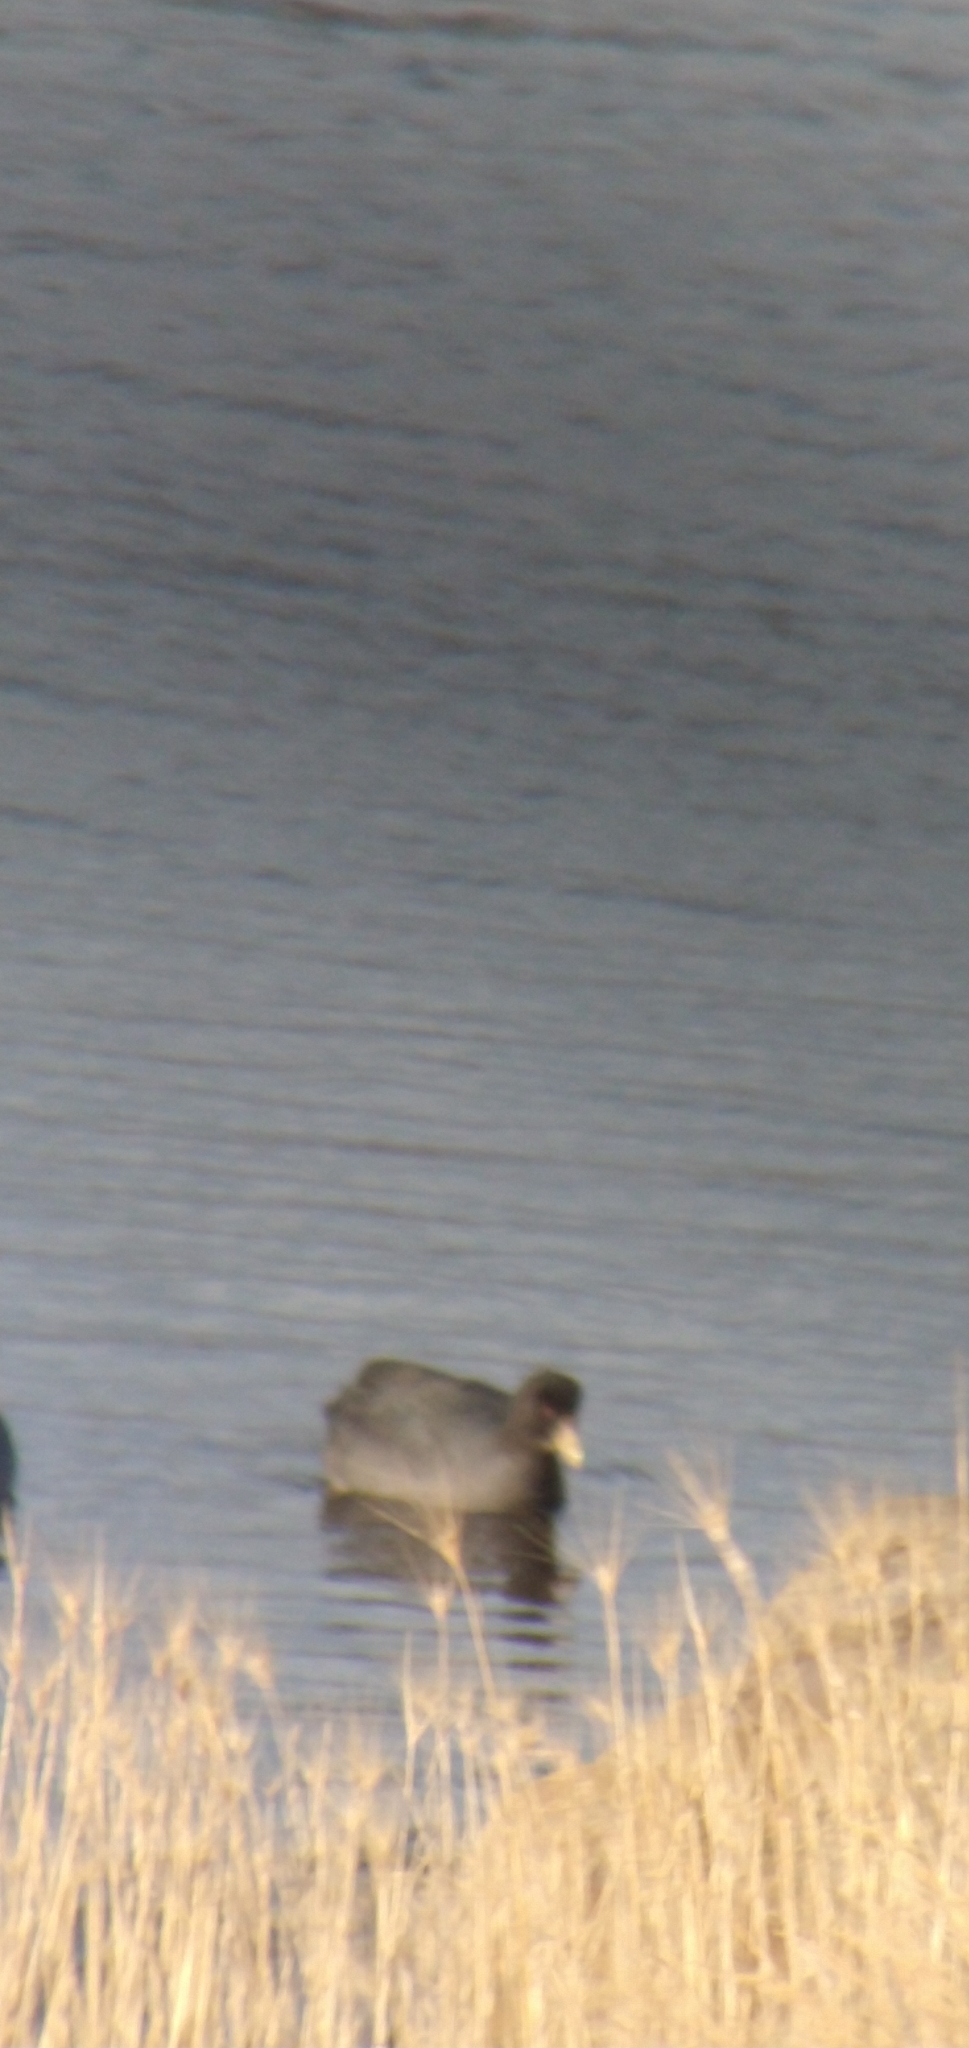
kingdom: Animalia
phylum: Chordata
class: Aves
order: Gruiformes
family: Rallidae
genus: Fulica
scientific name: Fulica armillata
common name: Red-gartered coot
